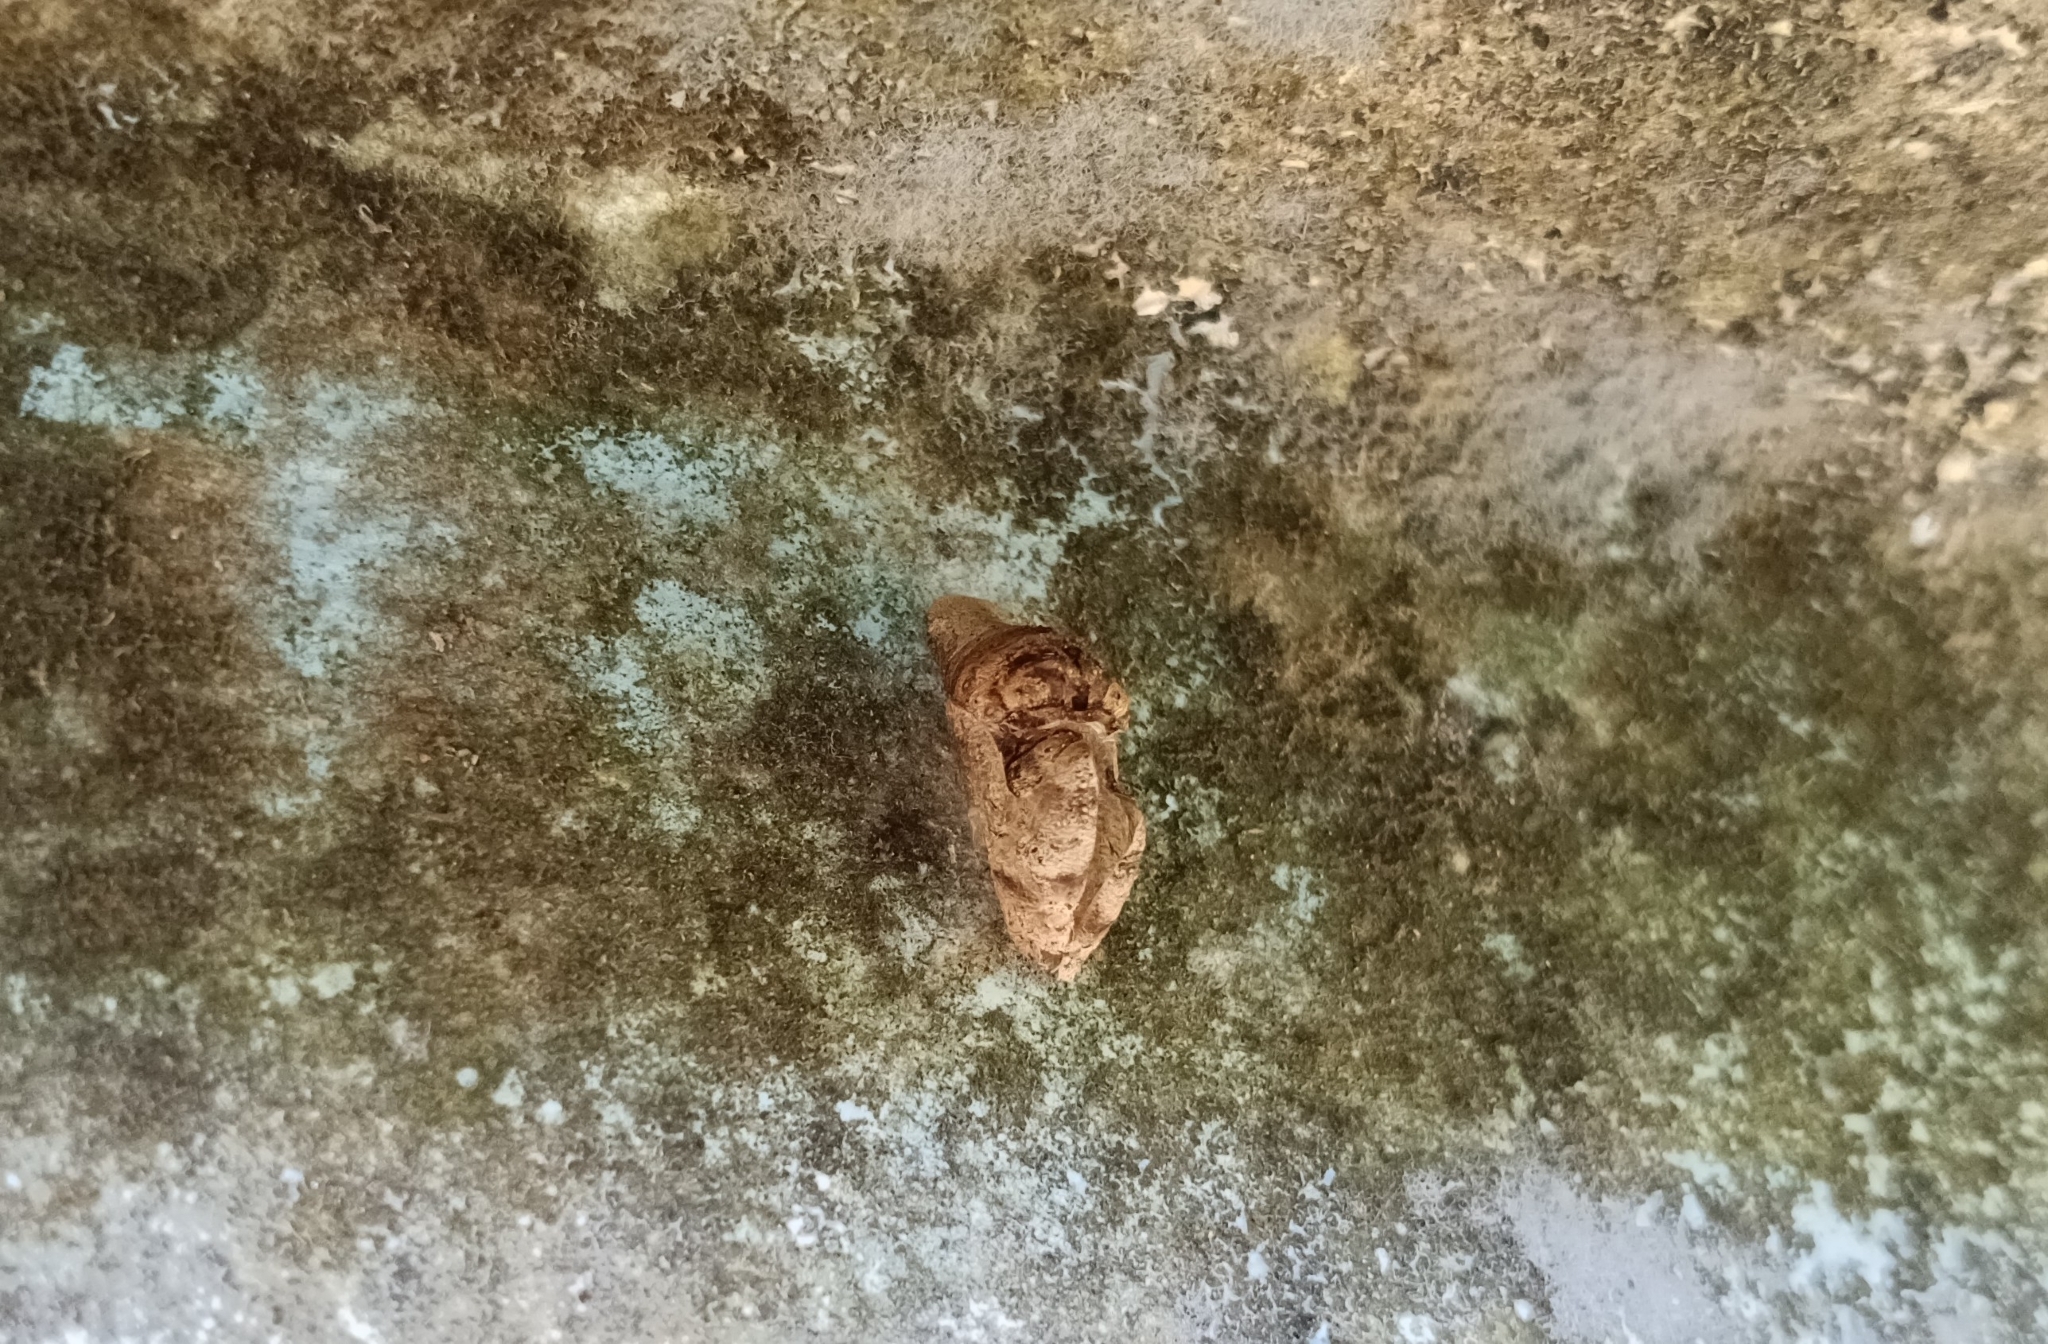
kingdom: Animalia
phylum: Arthropoda
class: Insecta
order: Lepidoptera
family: Lycaenidae
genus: Tajuria
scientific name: Tajuria cippus
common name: Peacock royal
